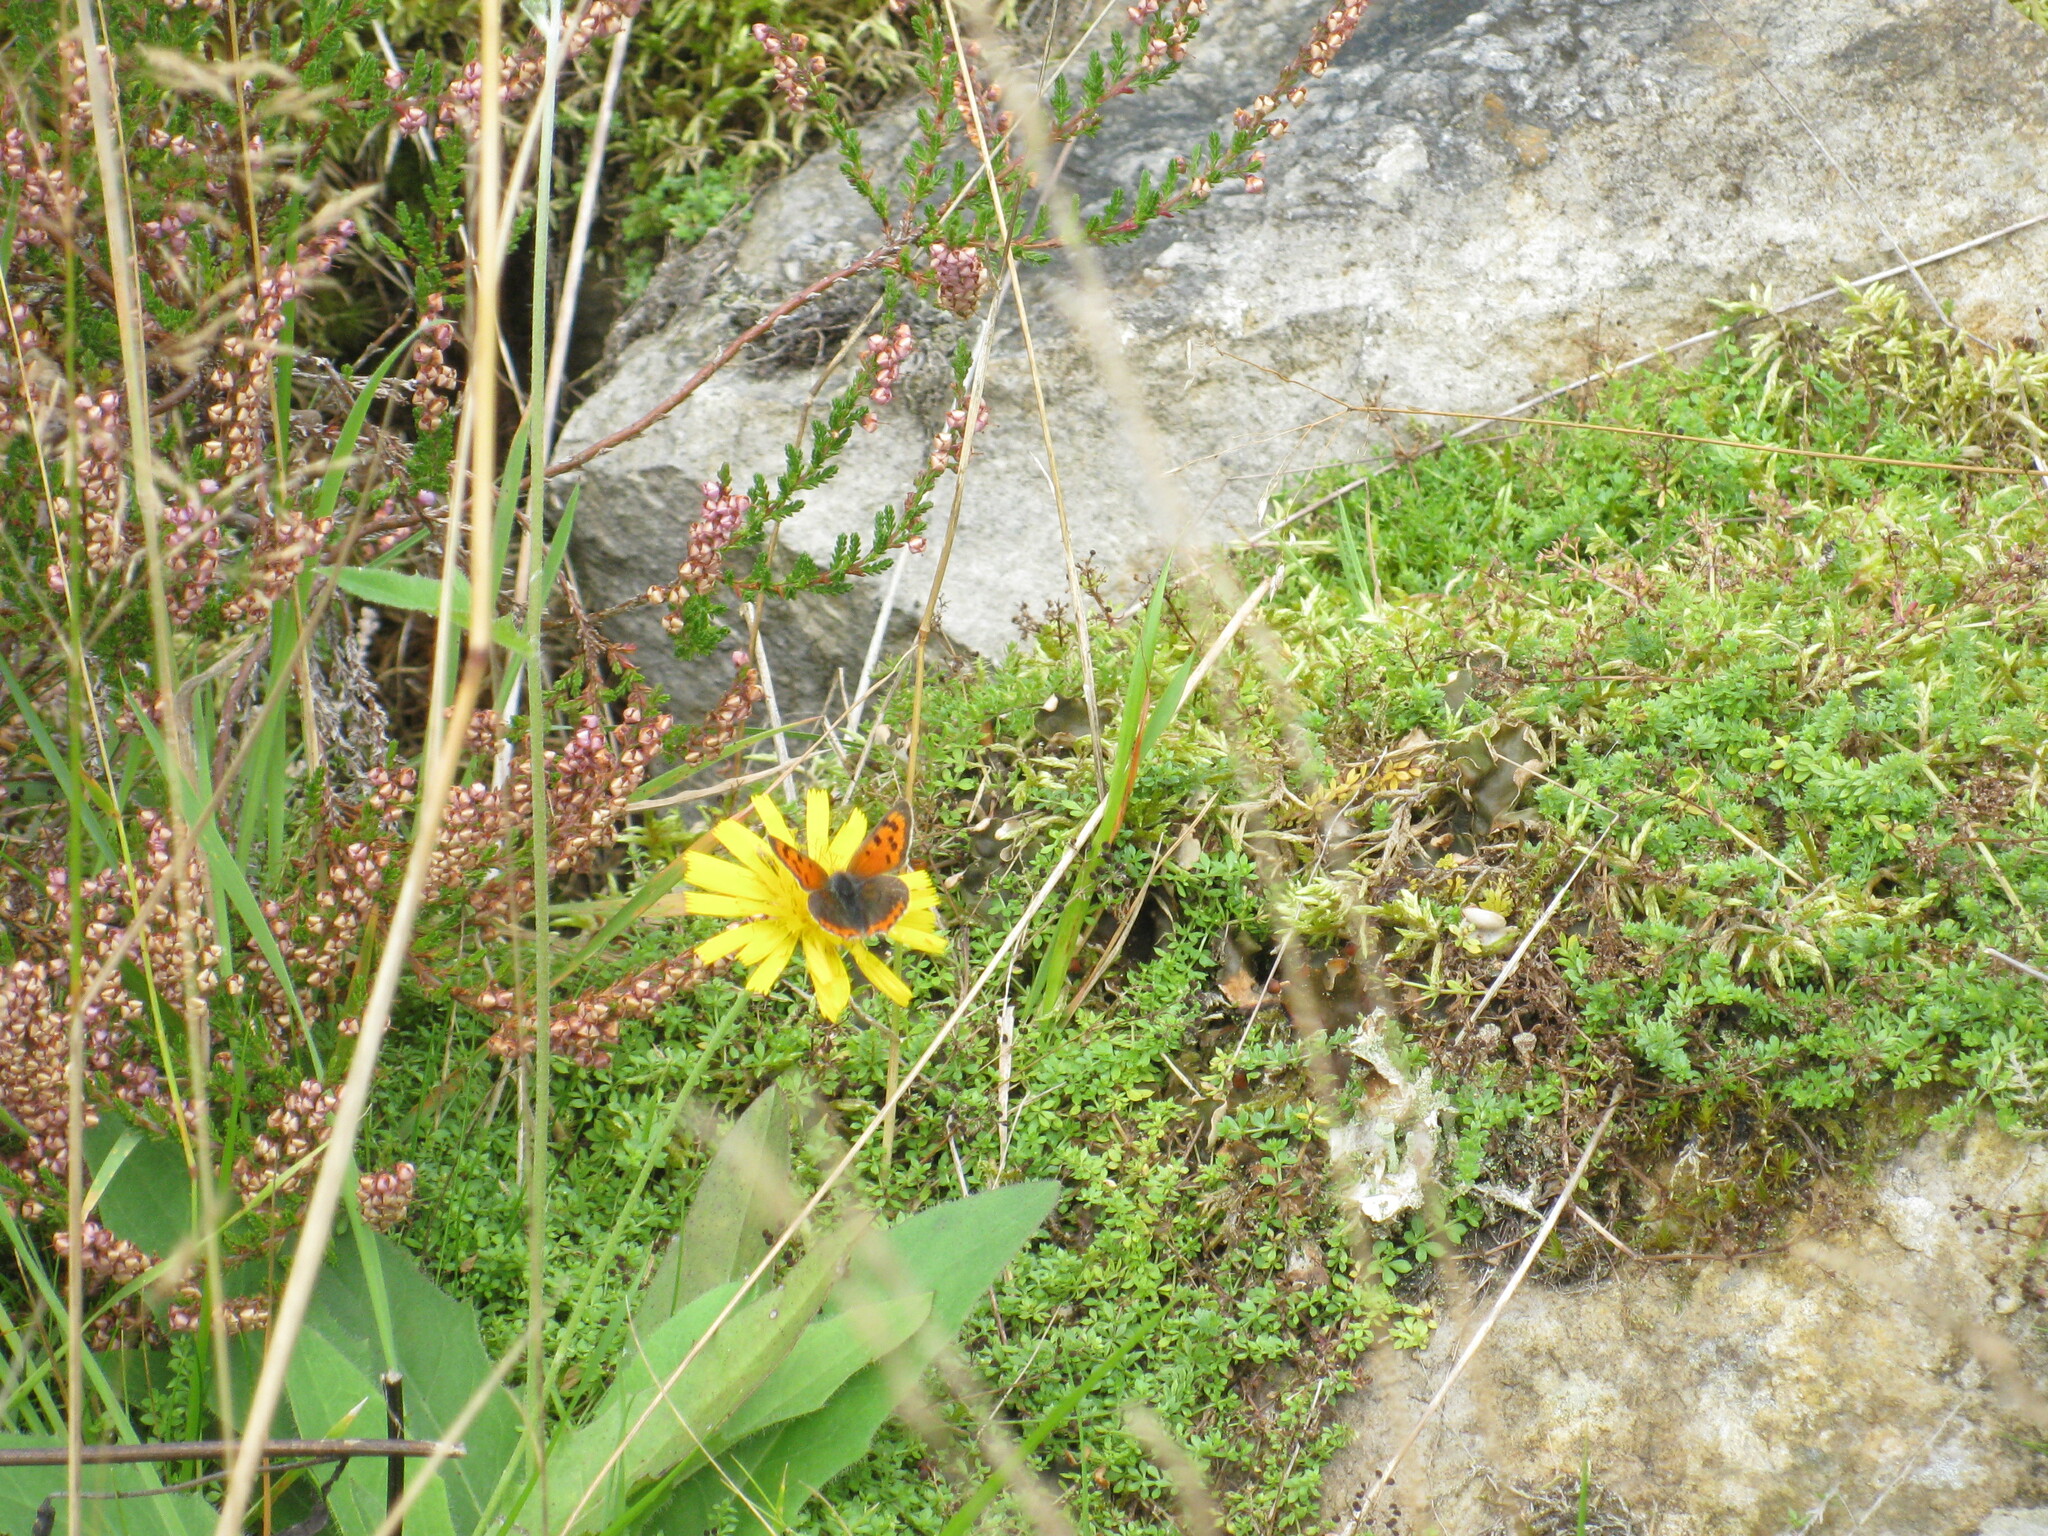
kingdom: Animalia
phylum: Arthropoda
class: Insecta
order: Lepidoptera
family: Lycaenidae
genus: Lycaena
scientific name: Lycaena phlaeas
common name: Small copper
